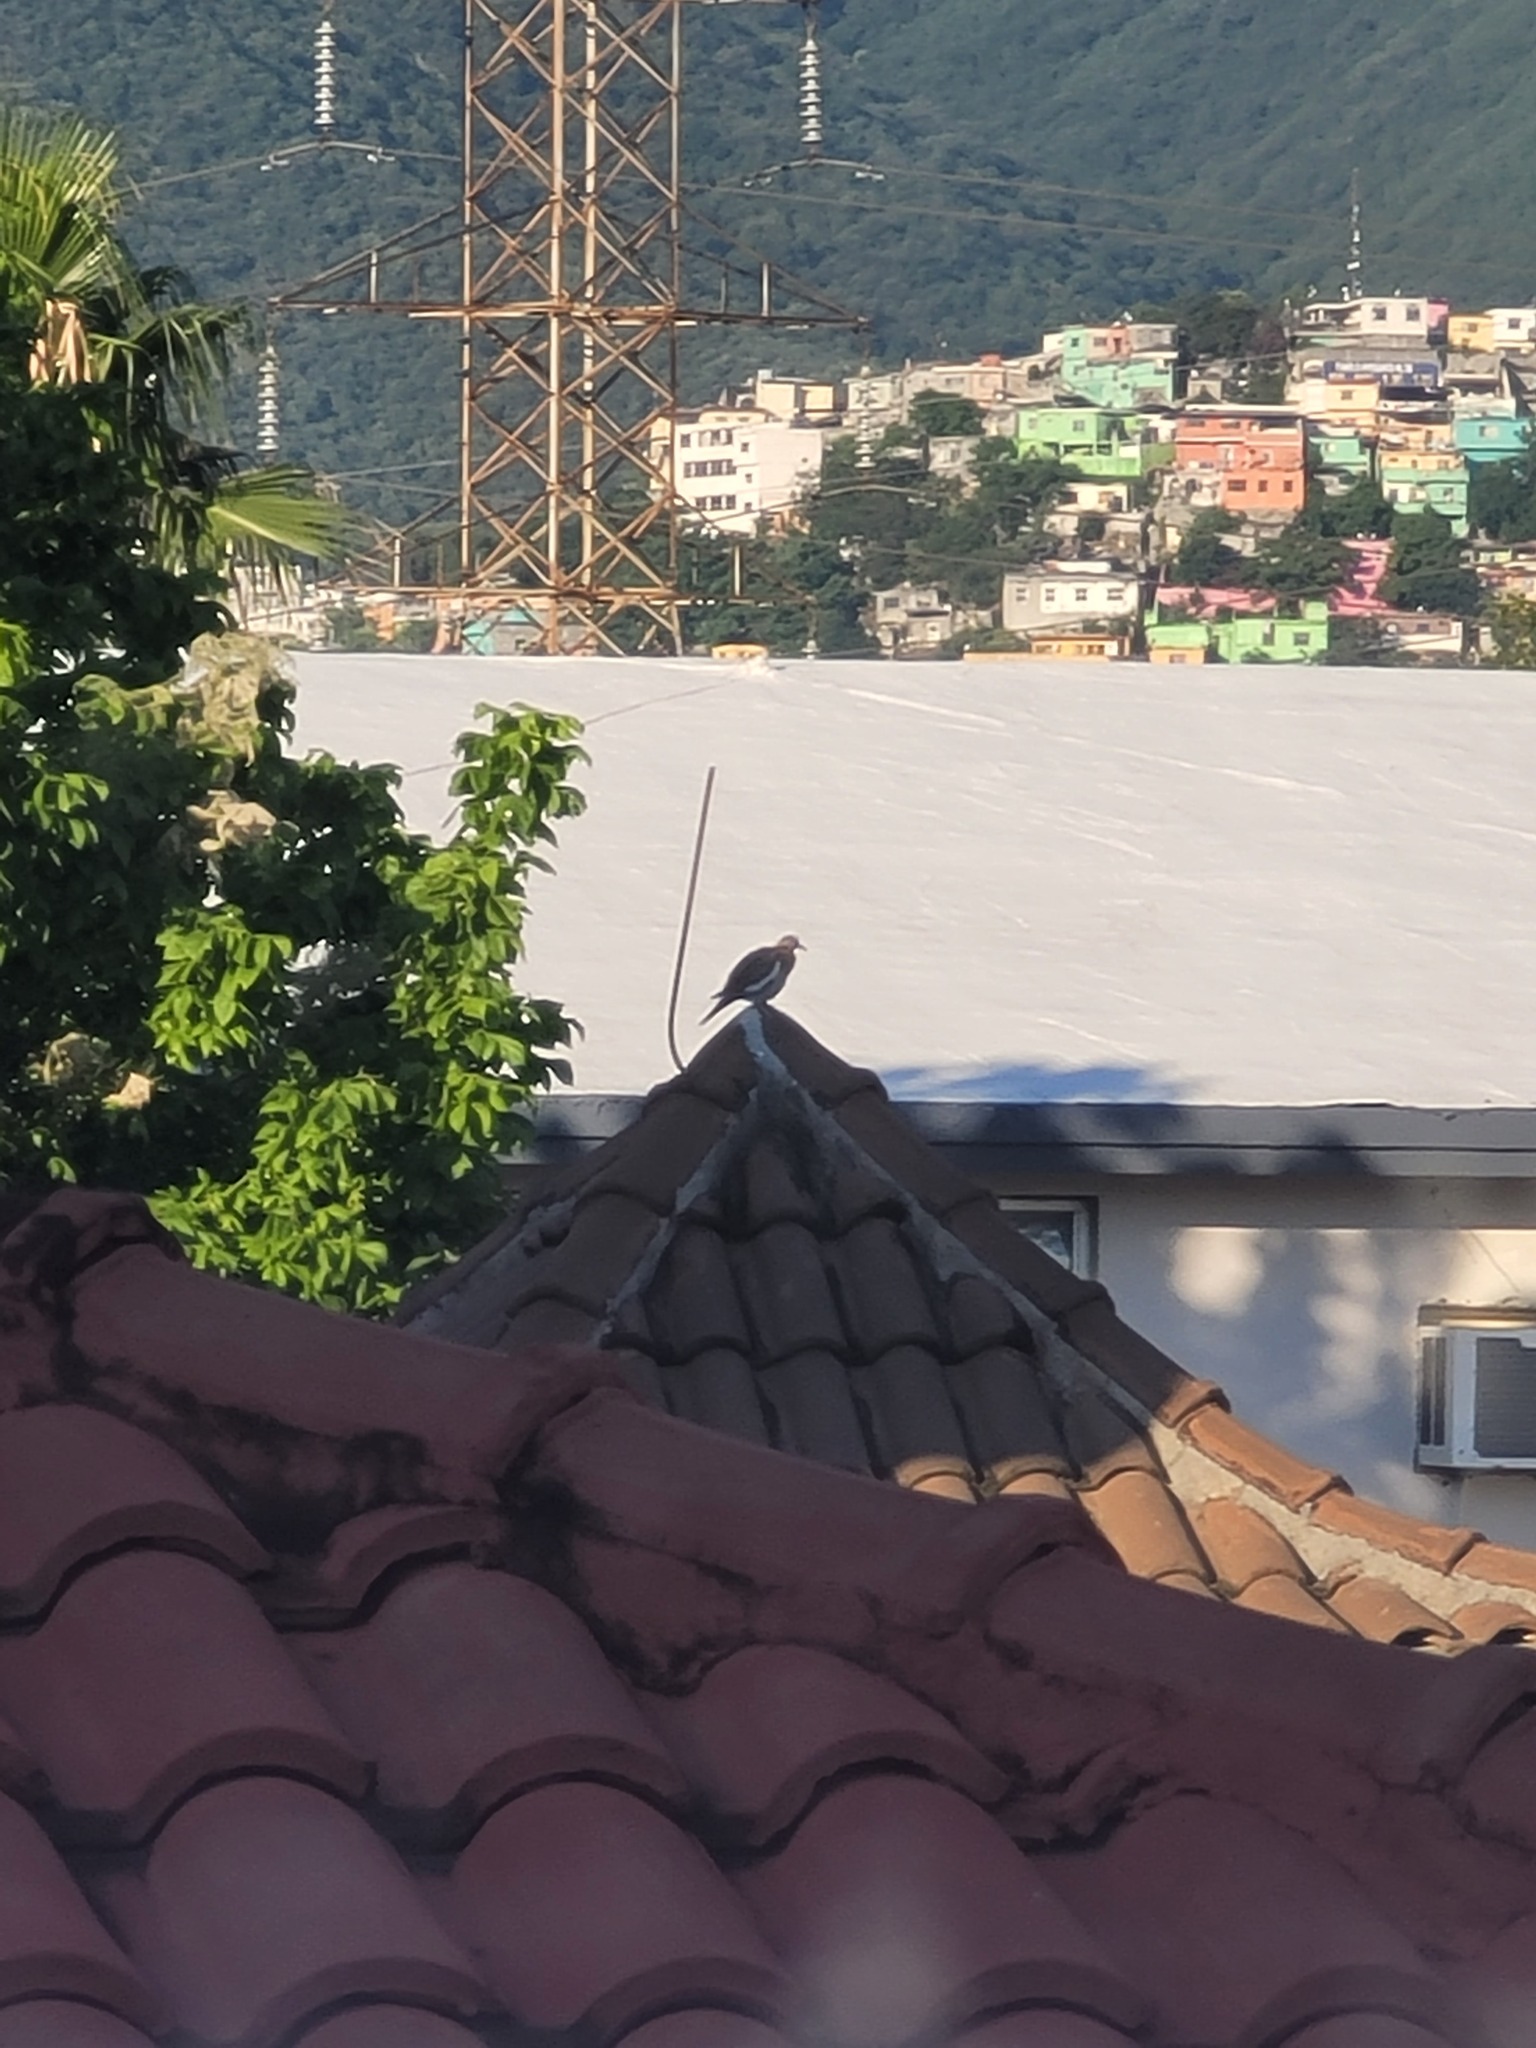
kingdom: Animalia
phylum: Chordata
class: Aves
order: Columbiformes
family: Columbidae
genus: Zenaida
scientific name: Zenaida asiatica
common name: White-winged dove
